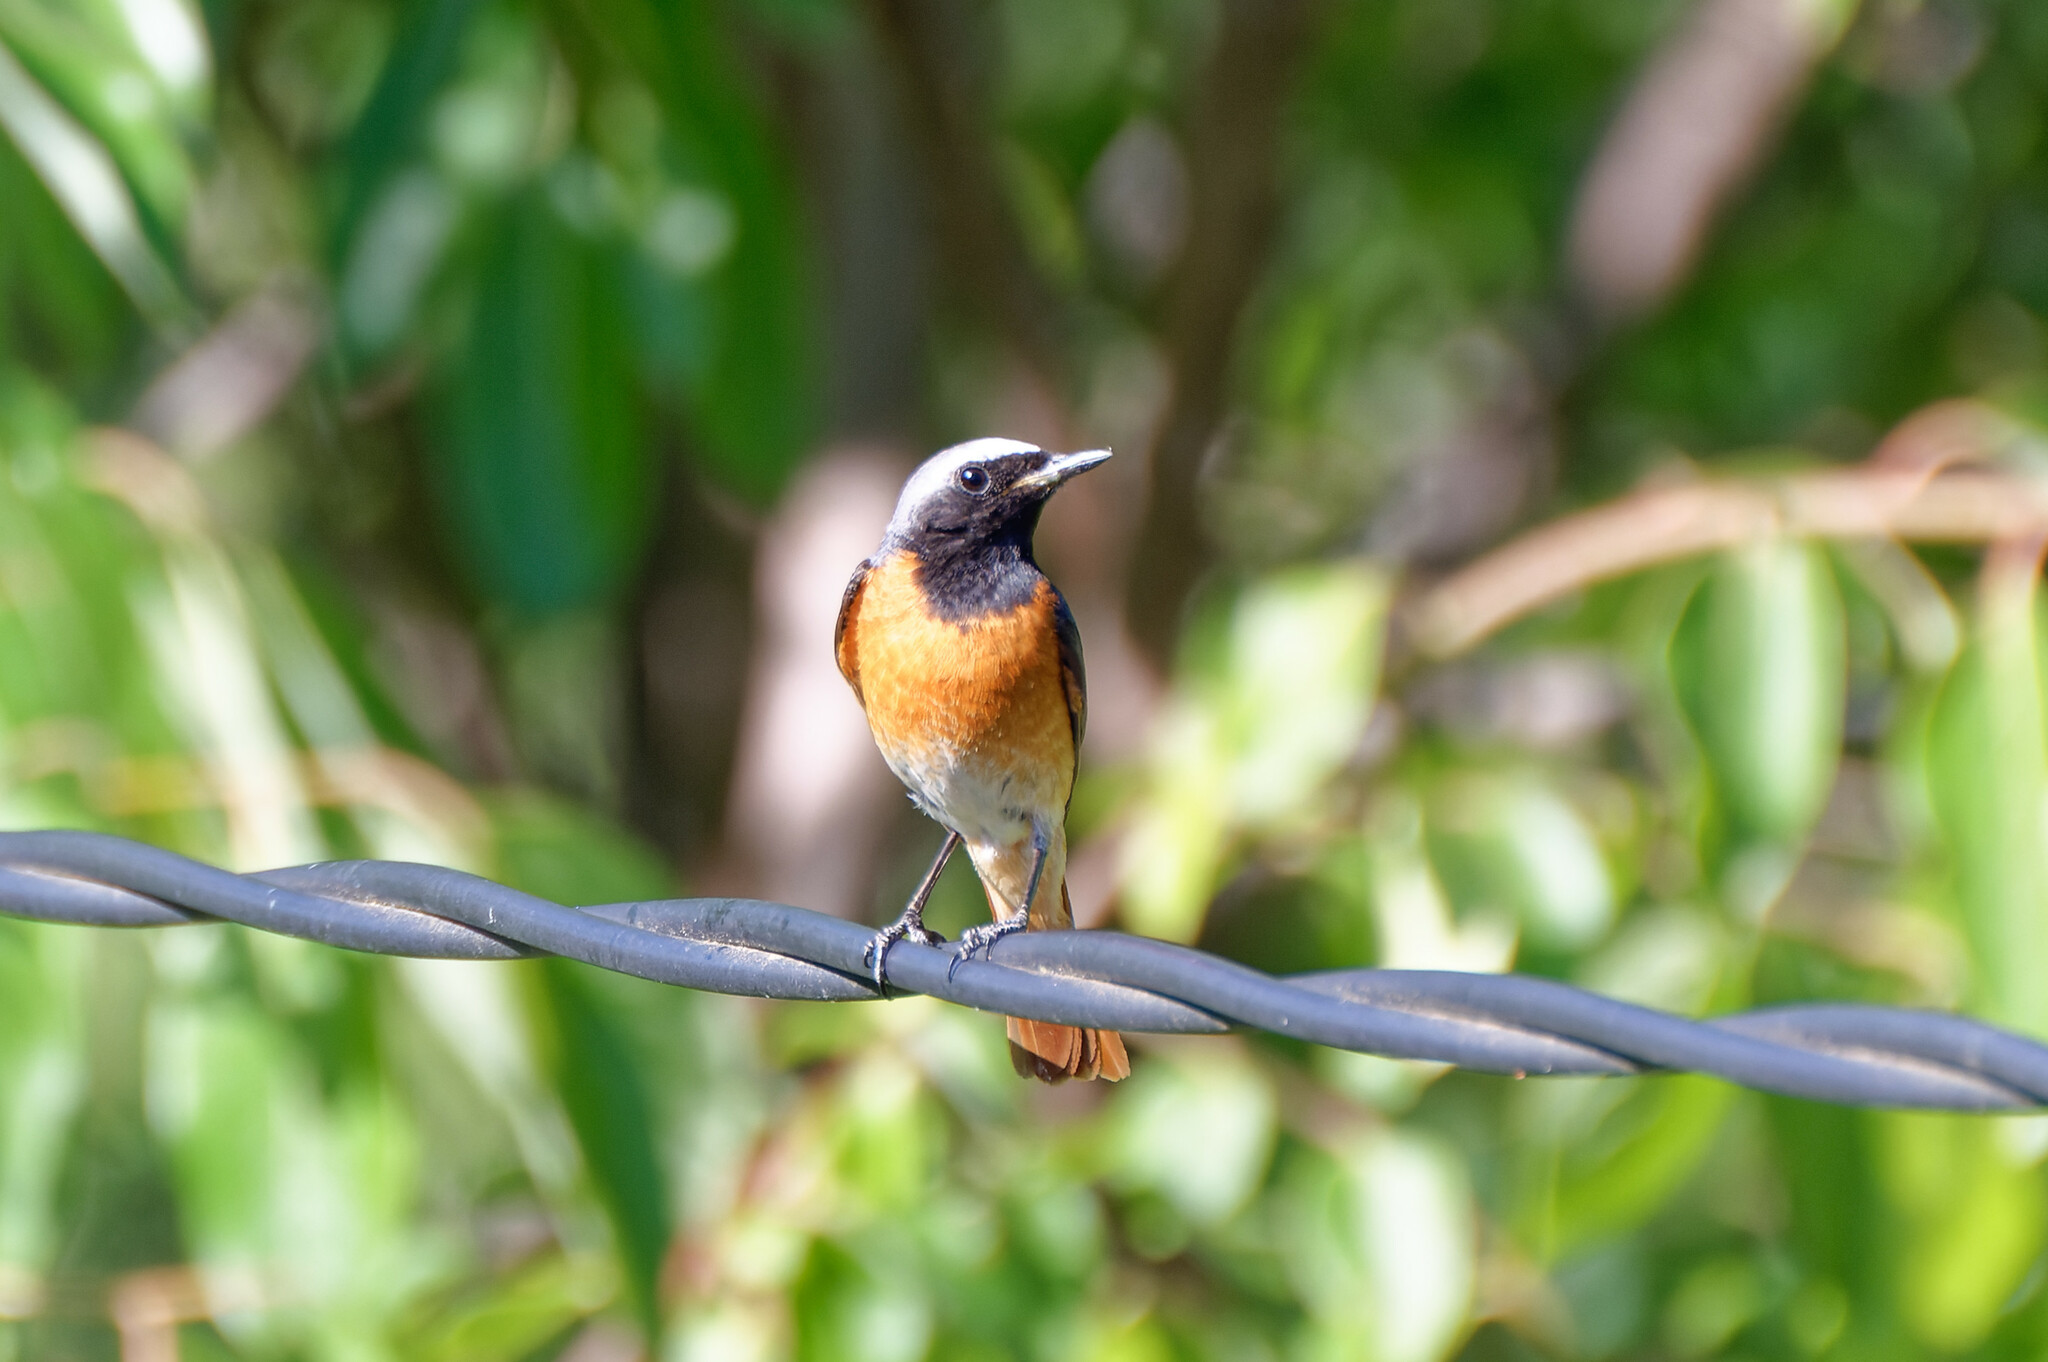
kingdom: Animalia
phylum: Chordata
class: Aves
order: Passeriformes
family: Muscicapidae
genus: Phoenicurus
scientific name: Phoenicurus phoenicurus
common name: Common redstart
